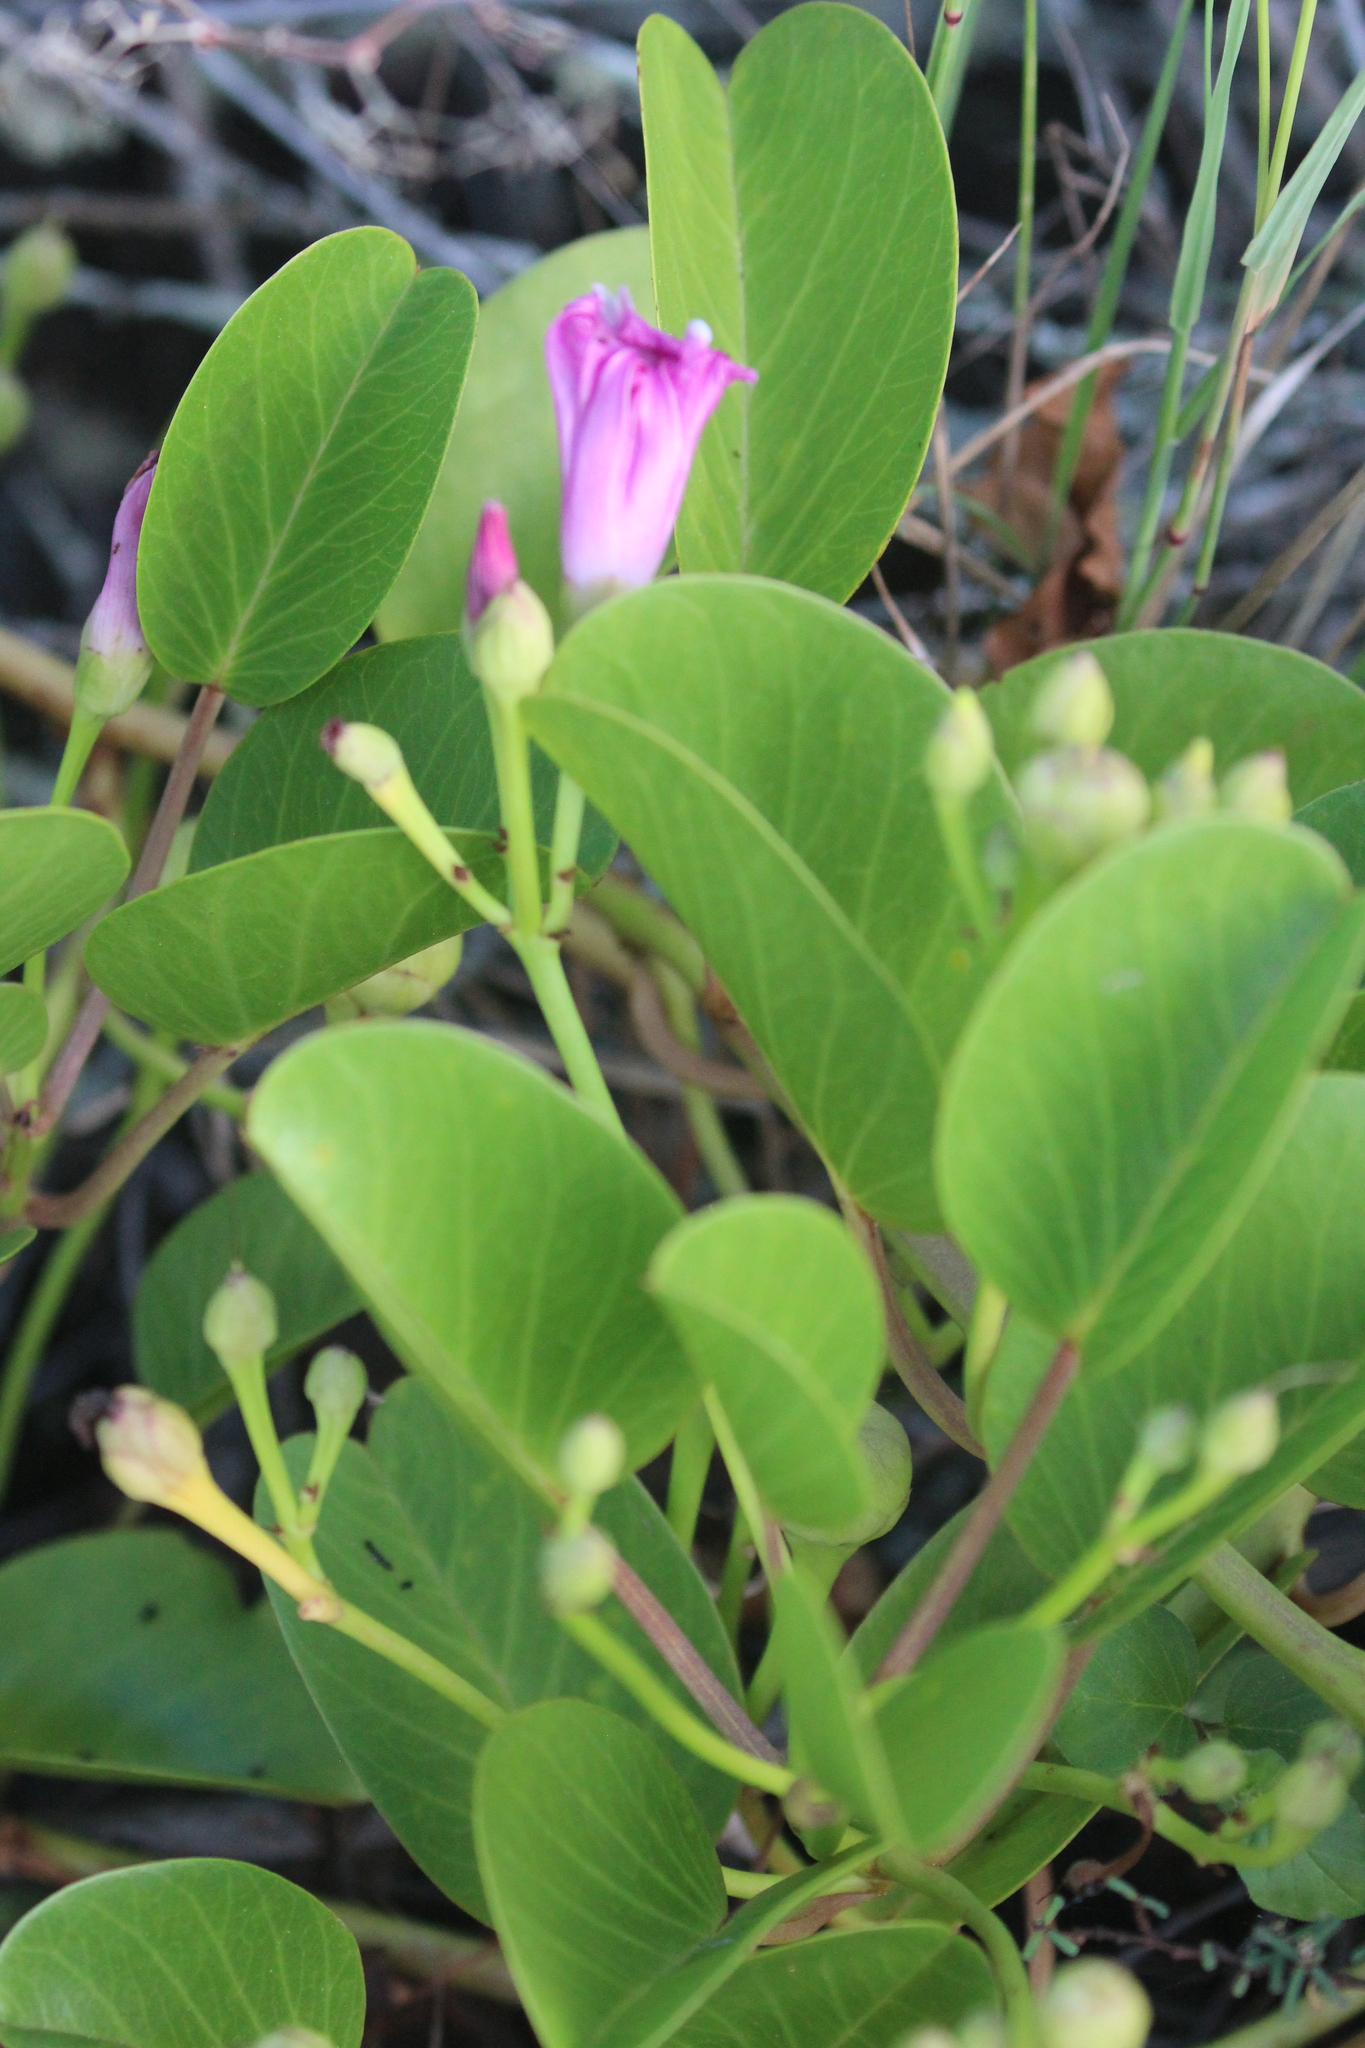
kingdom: Plantae
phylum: Tracheophyta
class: Magnoliopsida
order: Solanales
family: Convolvulaceae
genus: Ipomoea
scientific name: Ipomoea pes-caprae
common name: Beach morning glory
